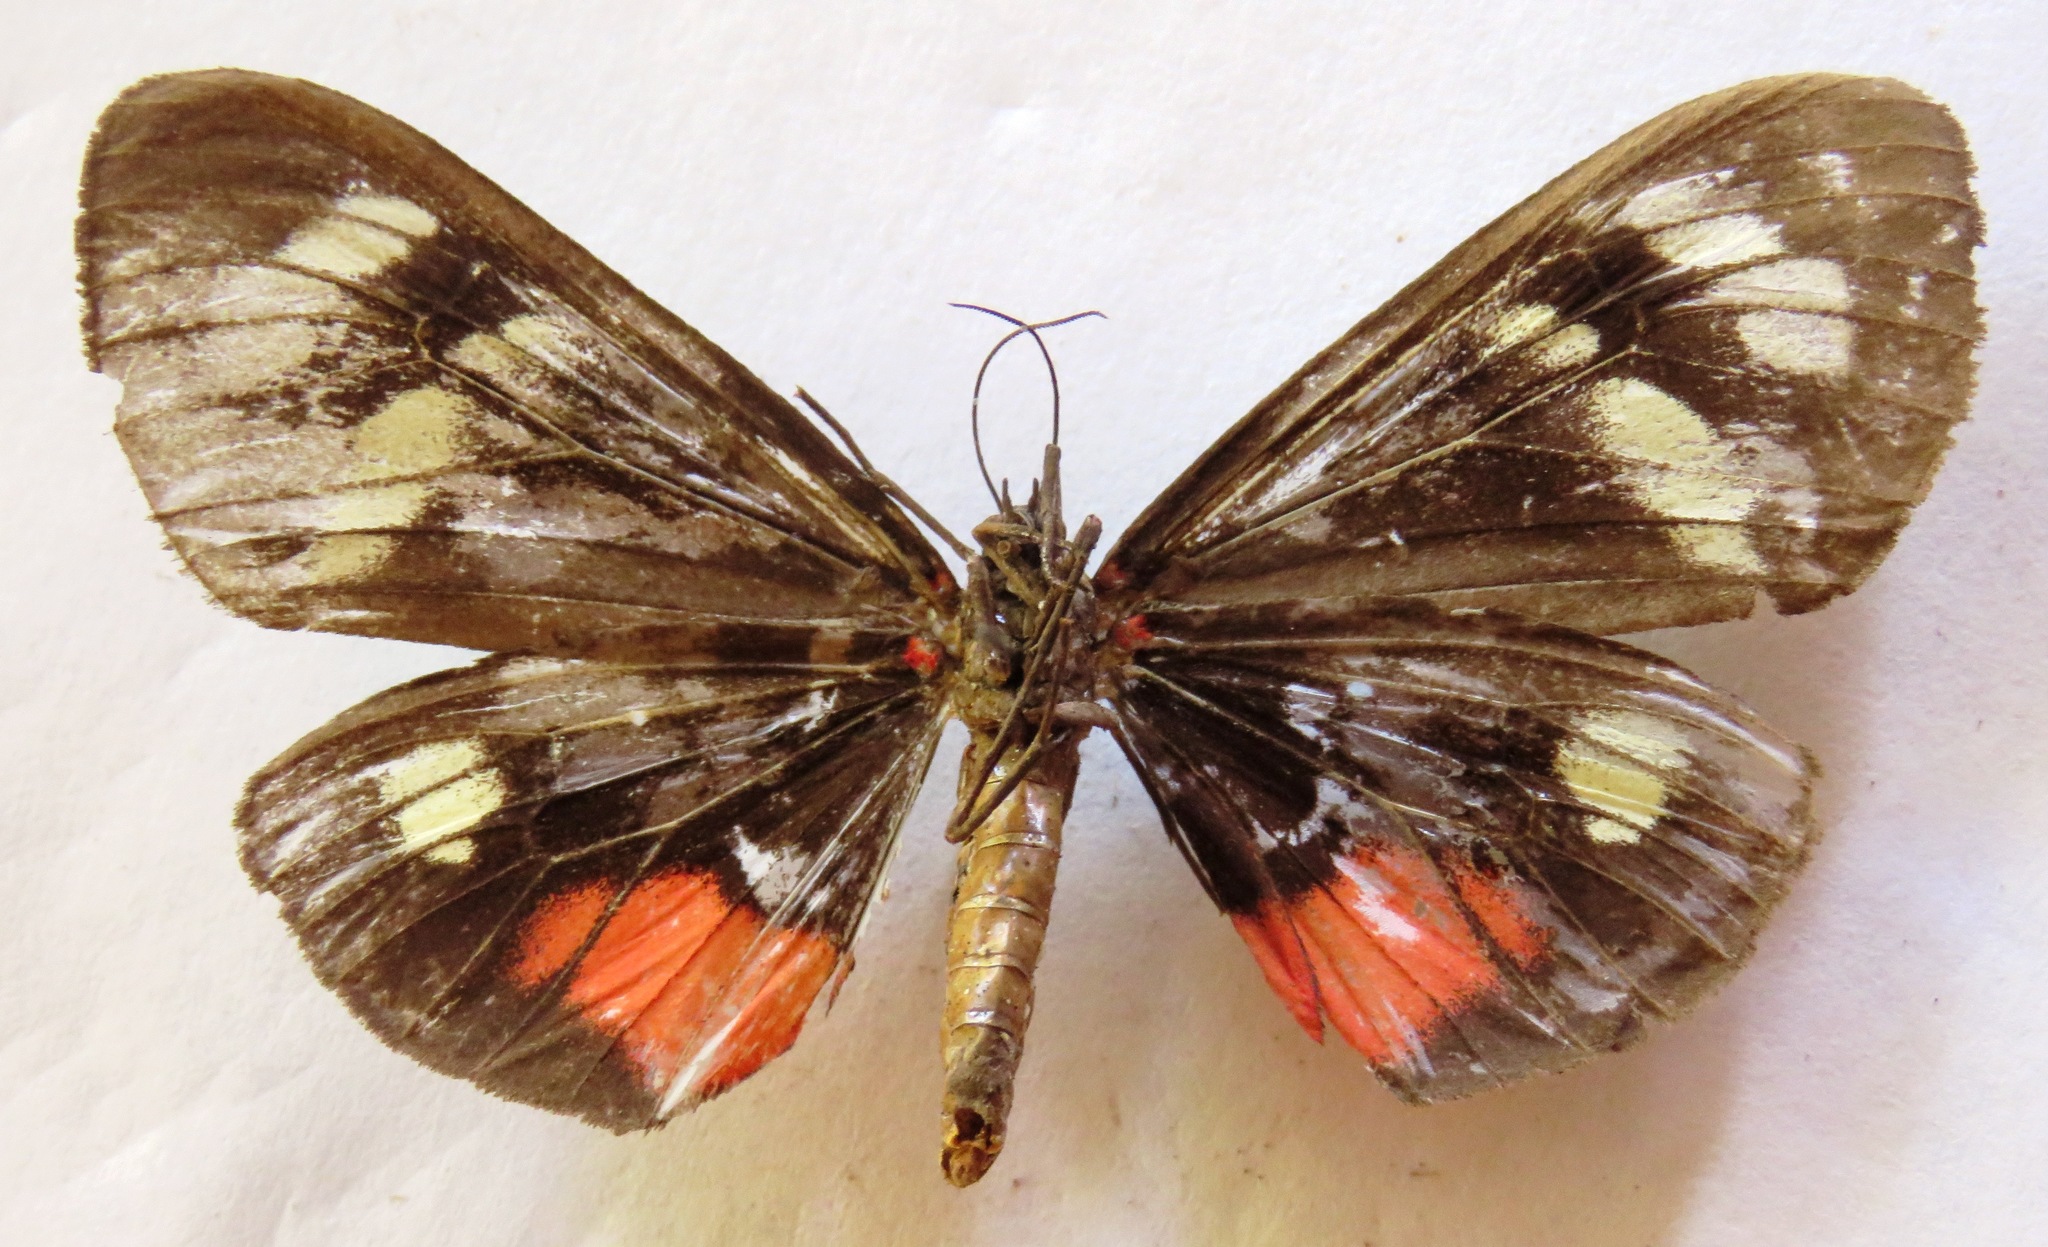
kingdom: Animalia
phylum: Arthropoda
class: Insecta
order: Lepidoptera
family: Erebidae
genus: Dysschema
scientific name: Dysschema jansonis
